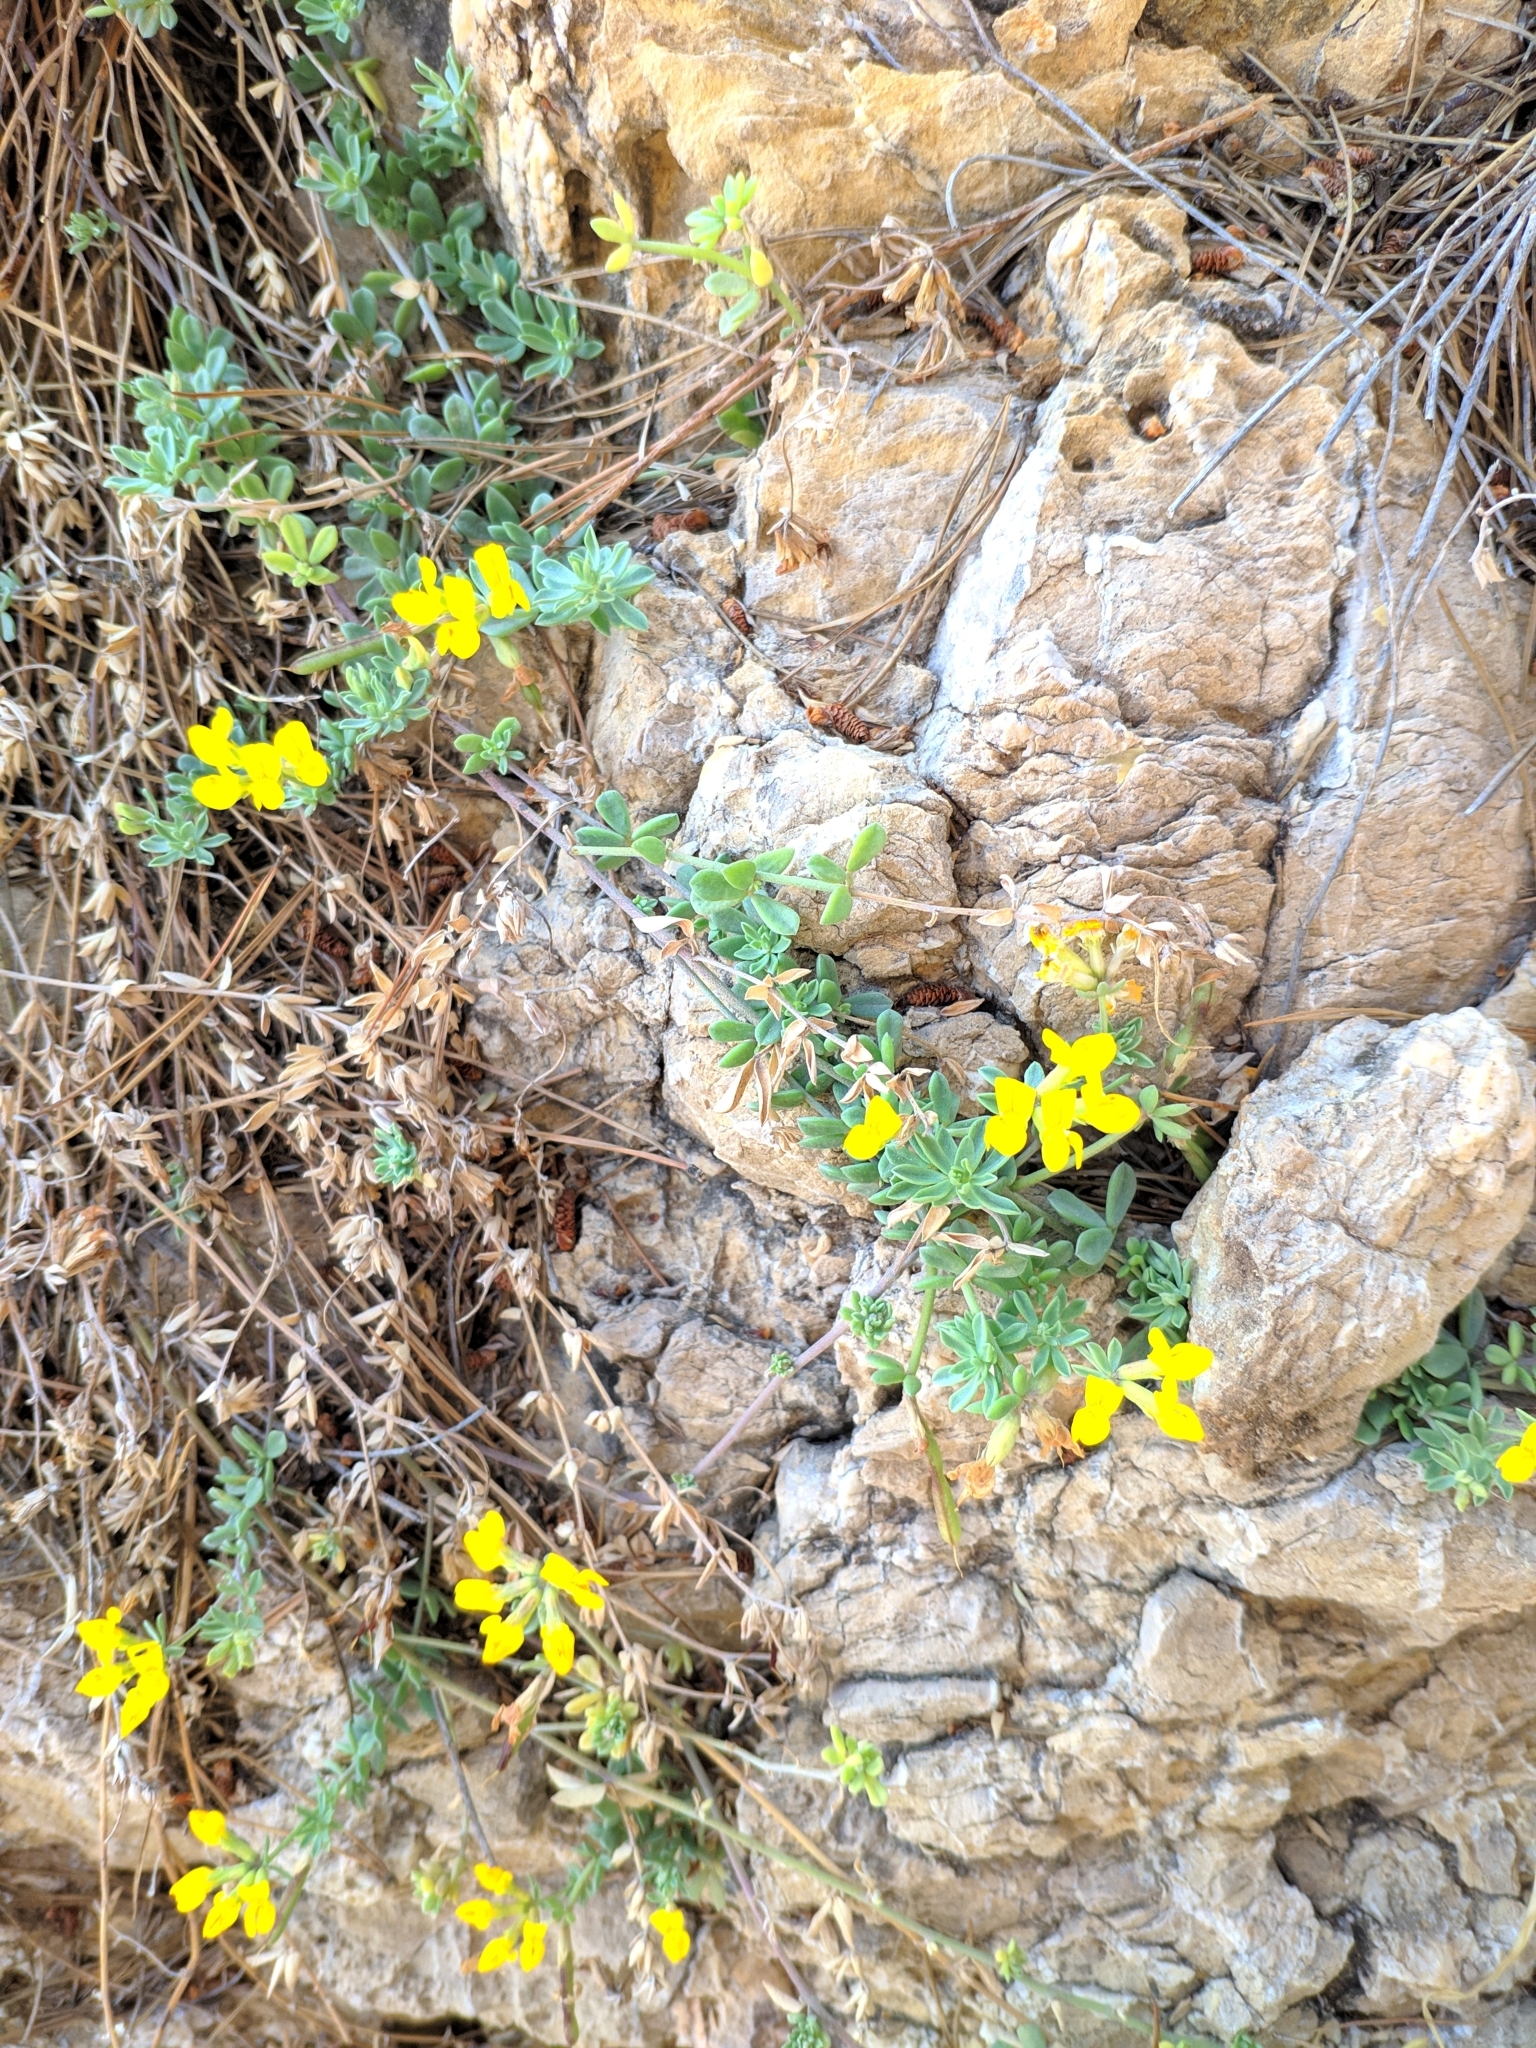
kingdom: Plantae
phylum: Tracheophyta
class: Magnoliopsida
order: Fabales
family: Fabaceae
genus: Lotus
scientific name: Lotus cytisoides
